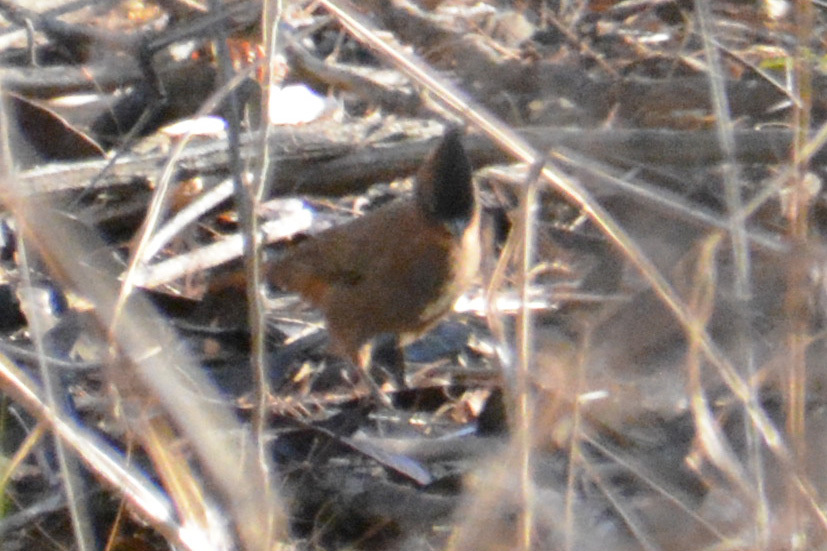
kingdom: Animalia
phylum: Chordata
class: Aves
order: Passeriformes
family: Furnariidae
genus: Pseudoseisura
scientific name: Pseudoseisura lophotes
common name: Brown cacholote
